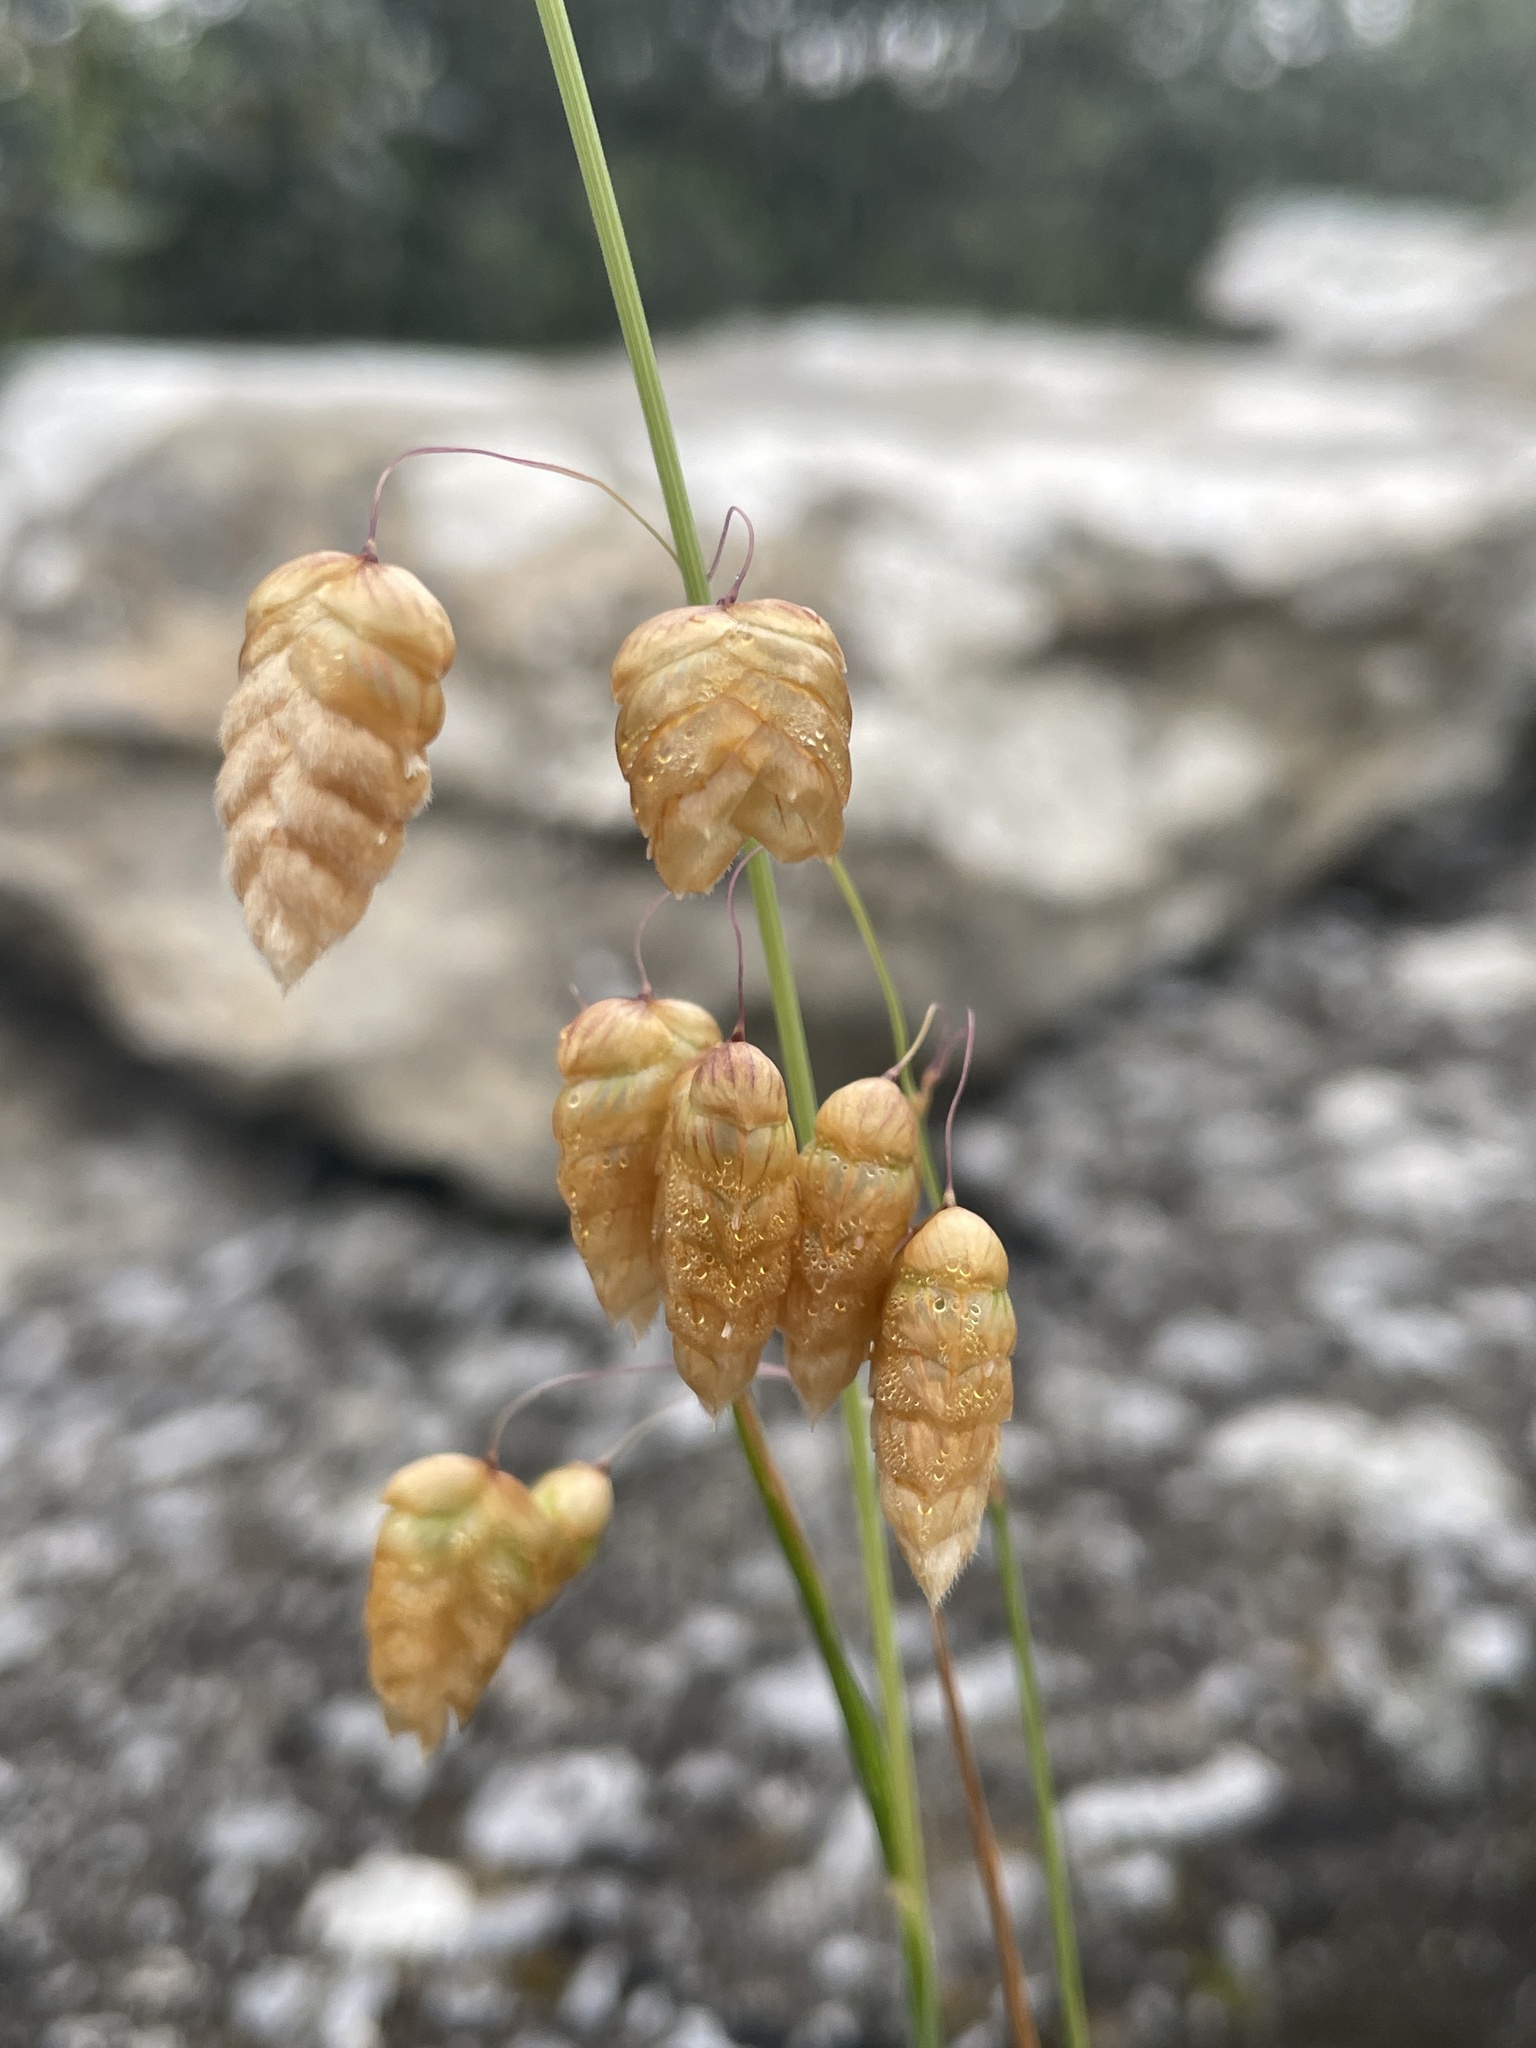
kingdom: Plantae
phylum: Tracheophyta
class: Liliopsida
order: Poales
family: Poaceae
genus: Briza
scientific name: Briza maxima
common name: Big quakinggrass
